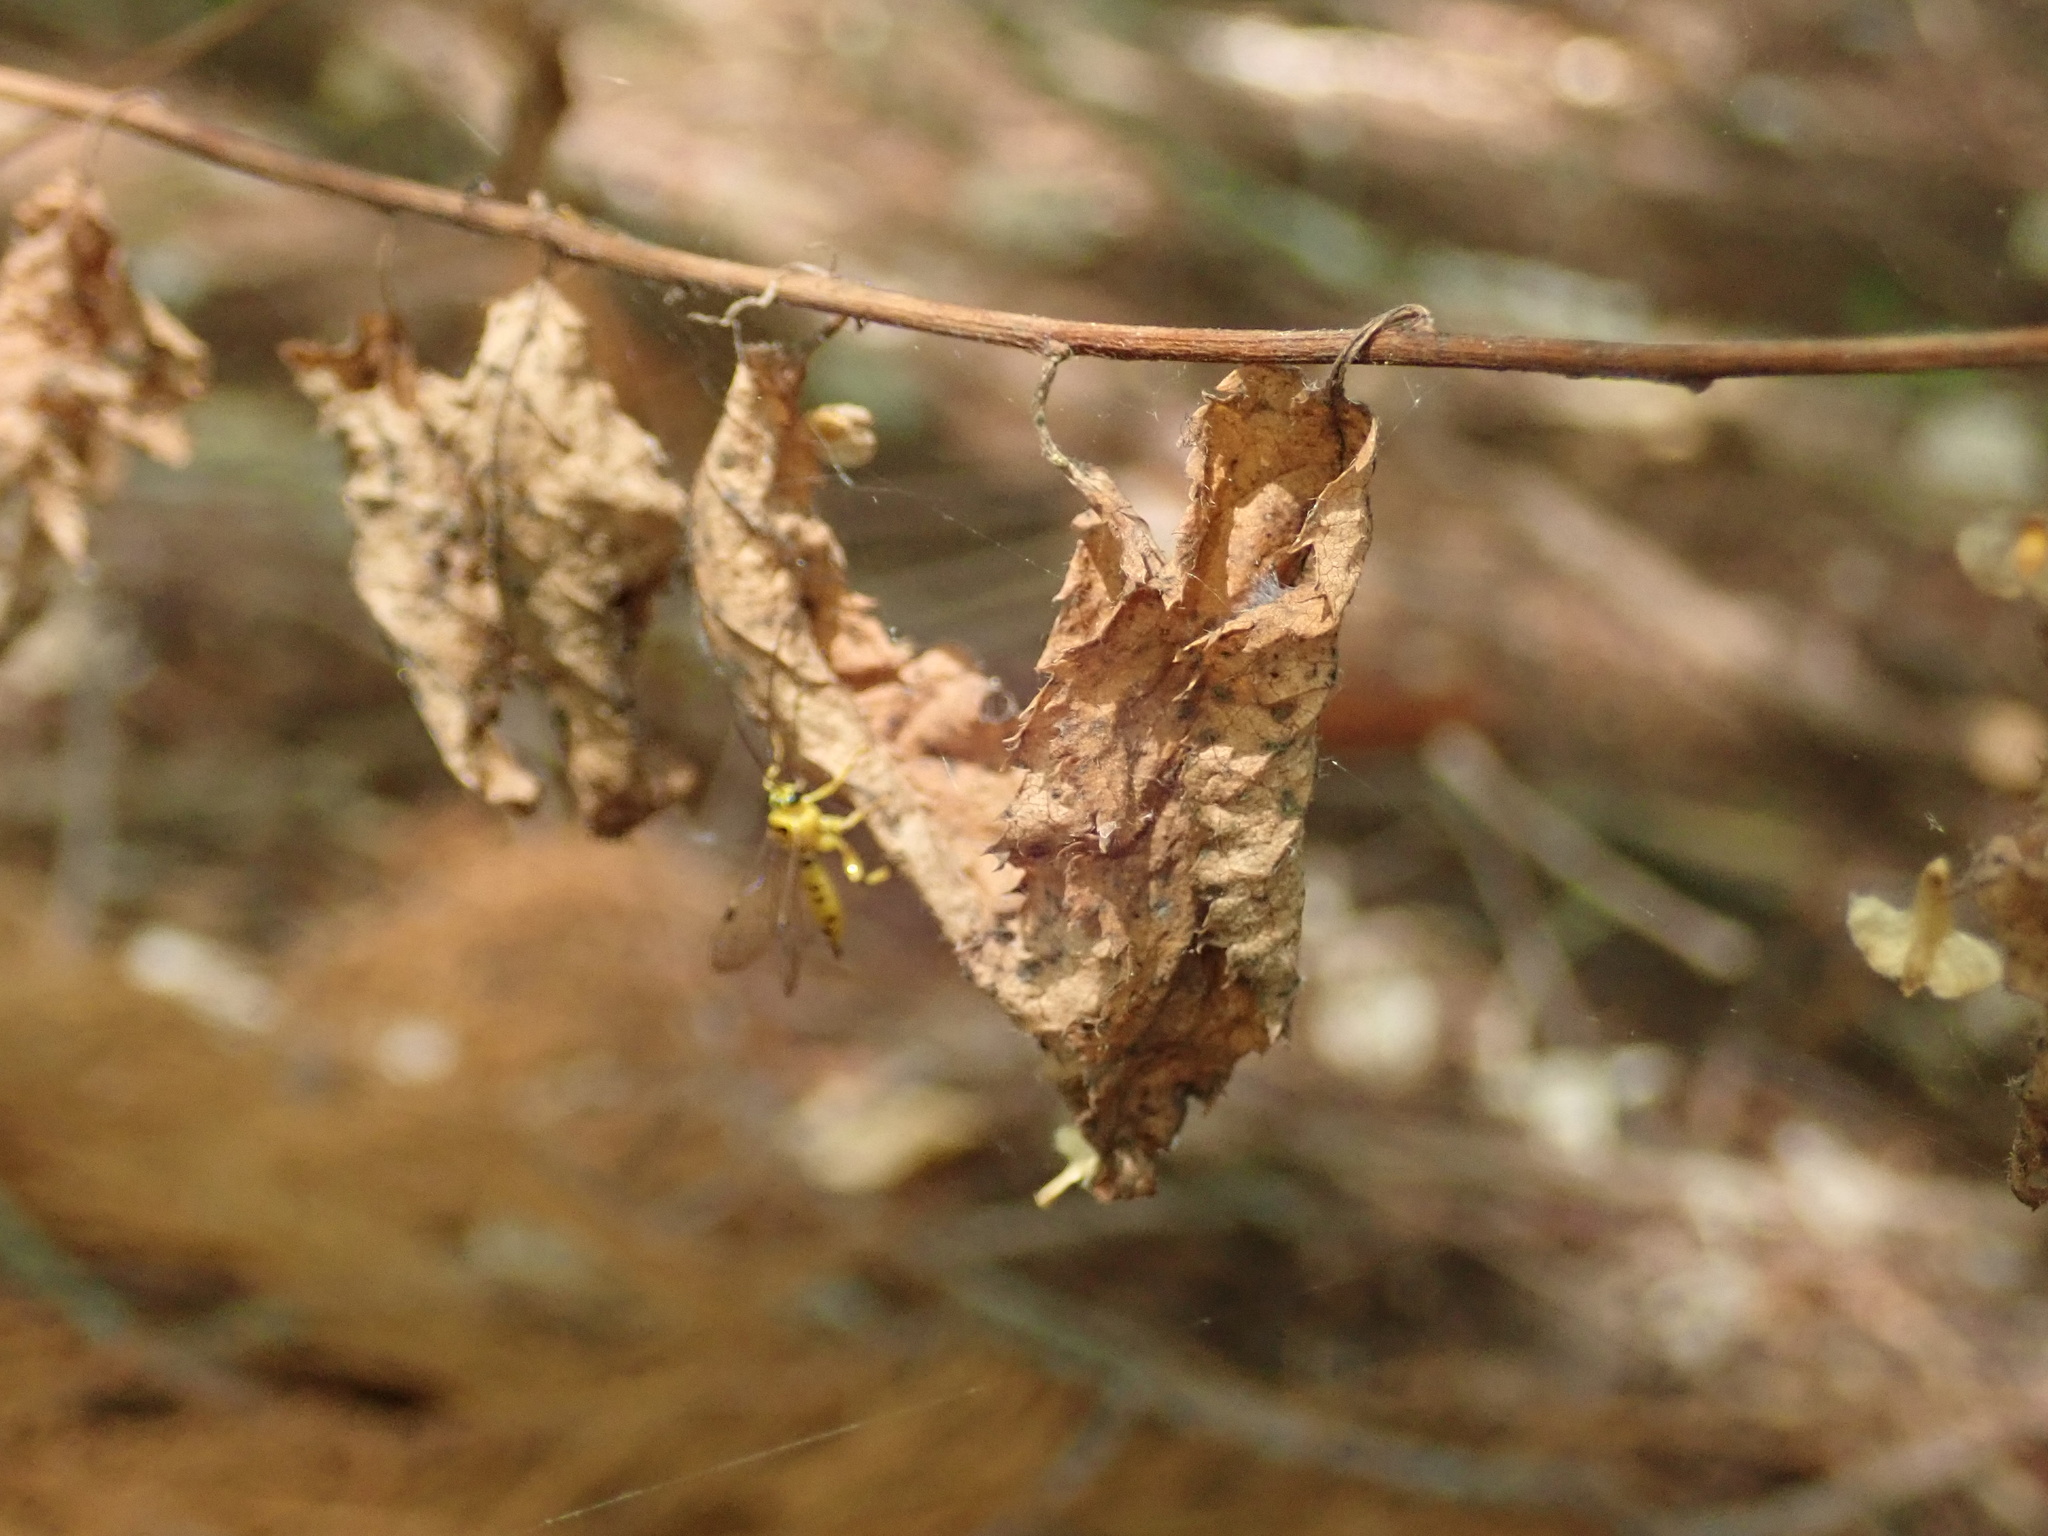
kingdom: Animalia
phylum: Arthropoda
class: Insecta
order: Hymenoptera
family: Ichneumonidae
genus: Xanthopimpla
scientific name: Xanthopimpla rhopaloceros
